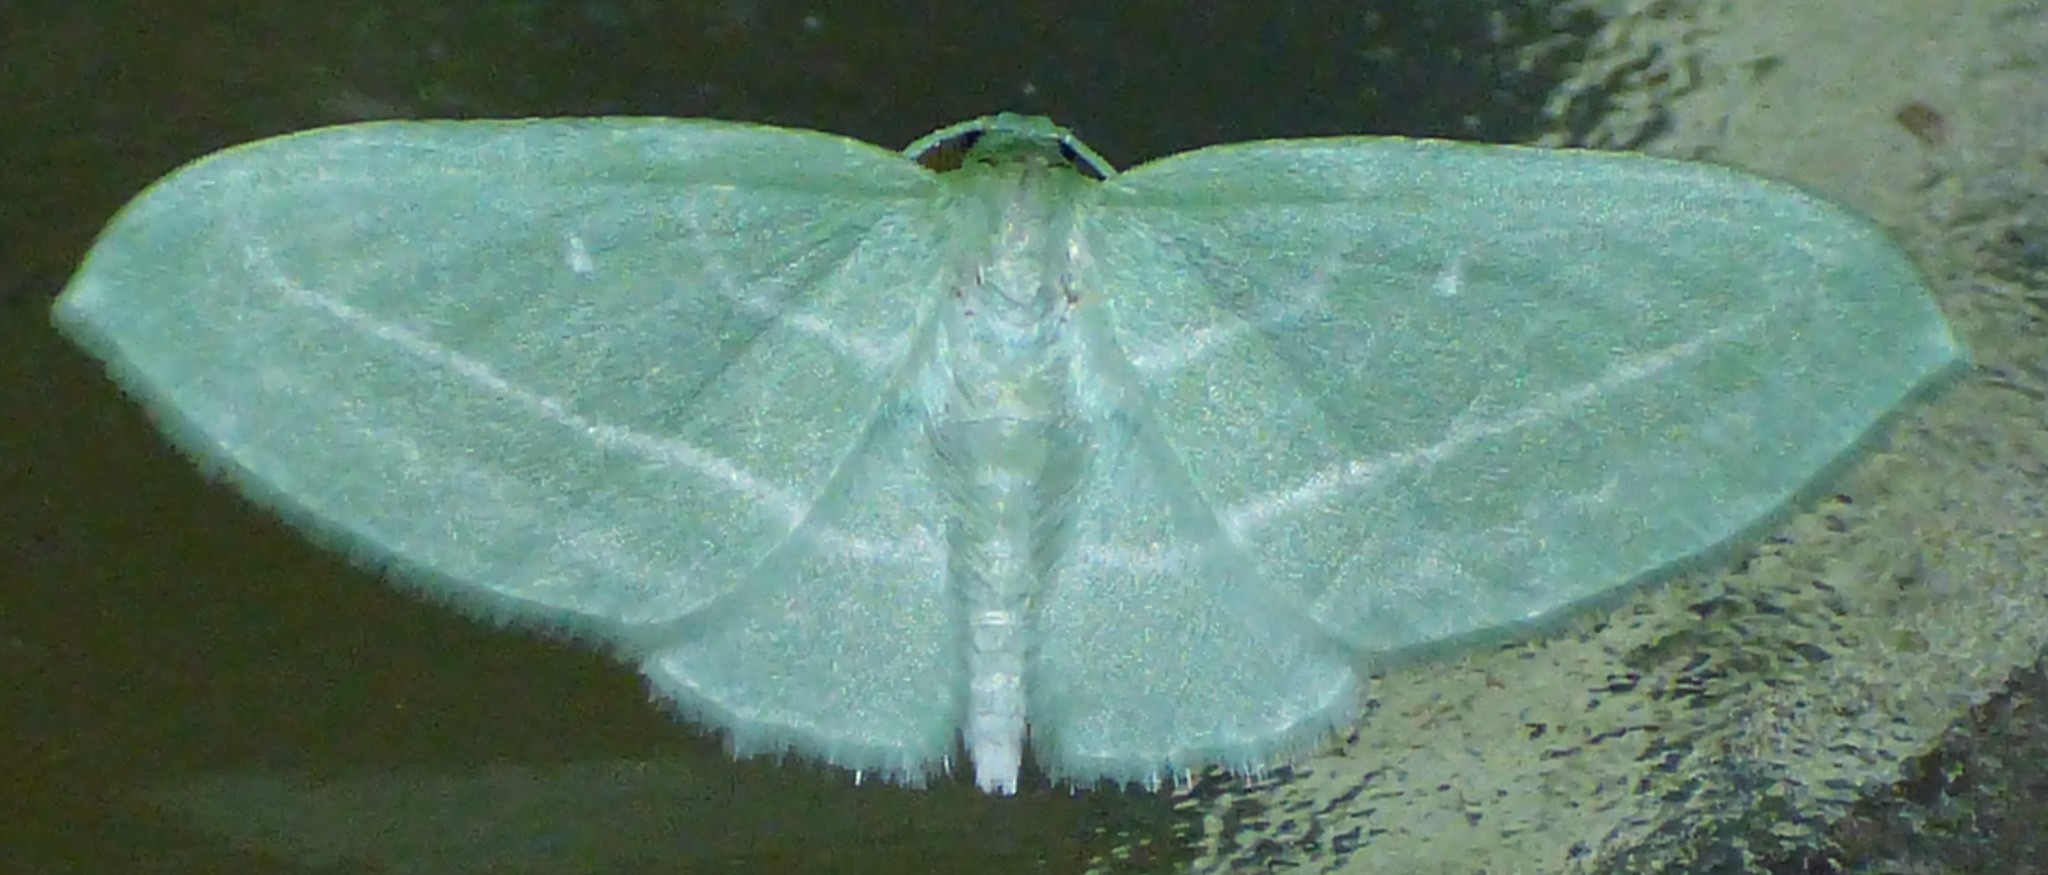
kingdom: Animalia
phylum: Arthropoda
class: Insecta
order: Lepidoptera
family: Geometridae
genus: Dyspteris
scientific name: Dyspteris abortivaria
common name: Bad-wing
